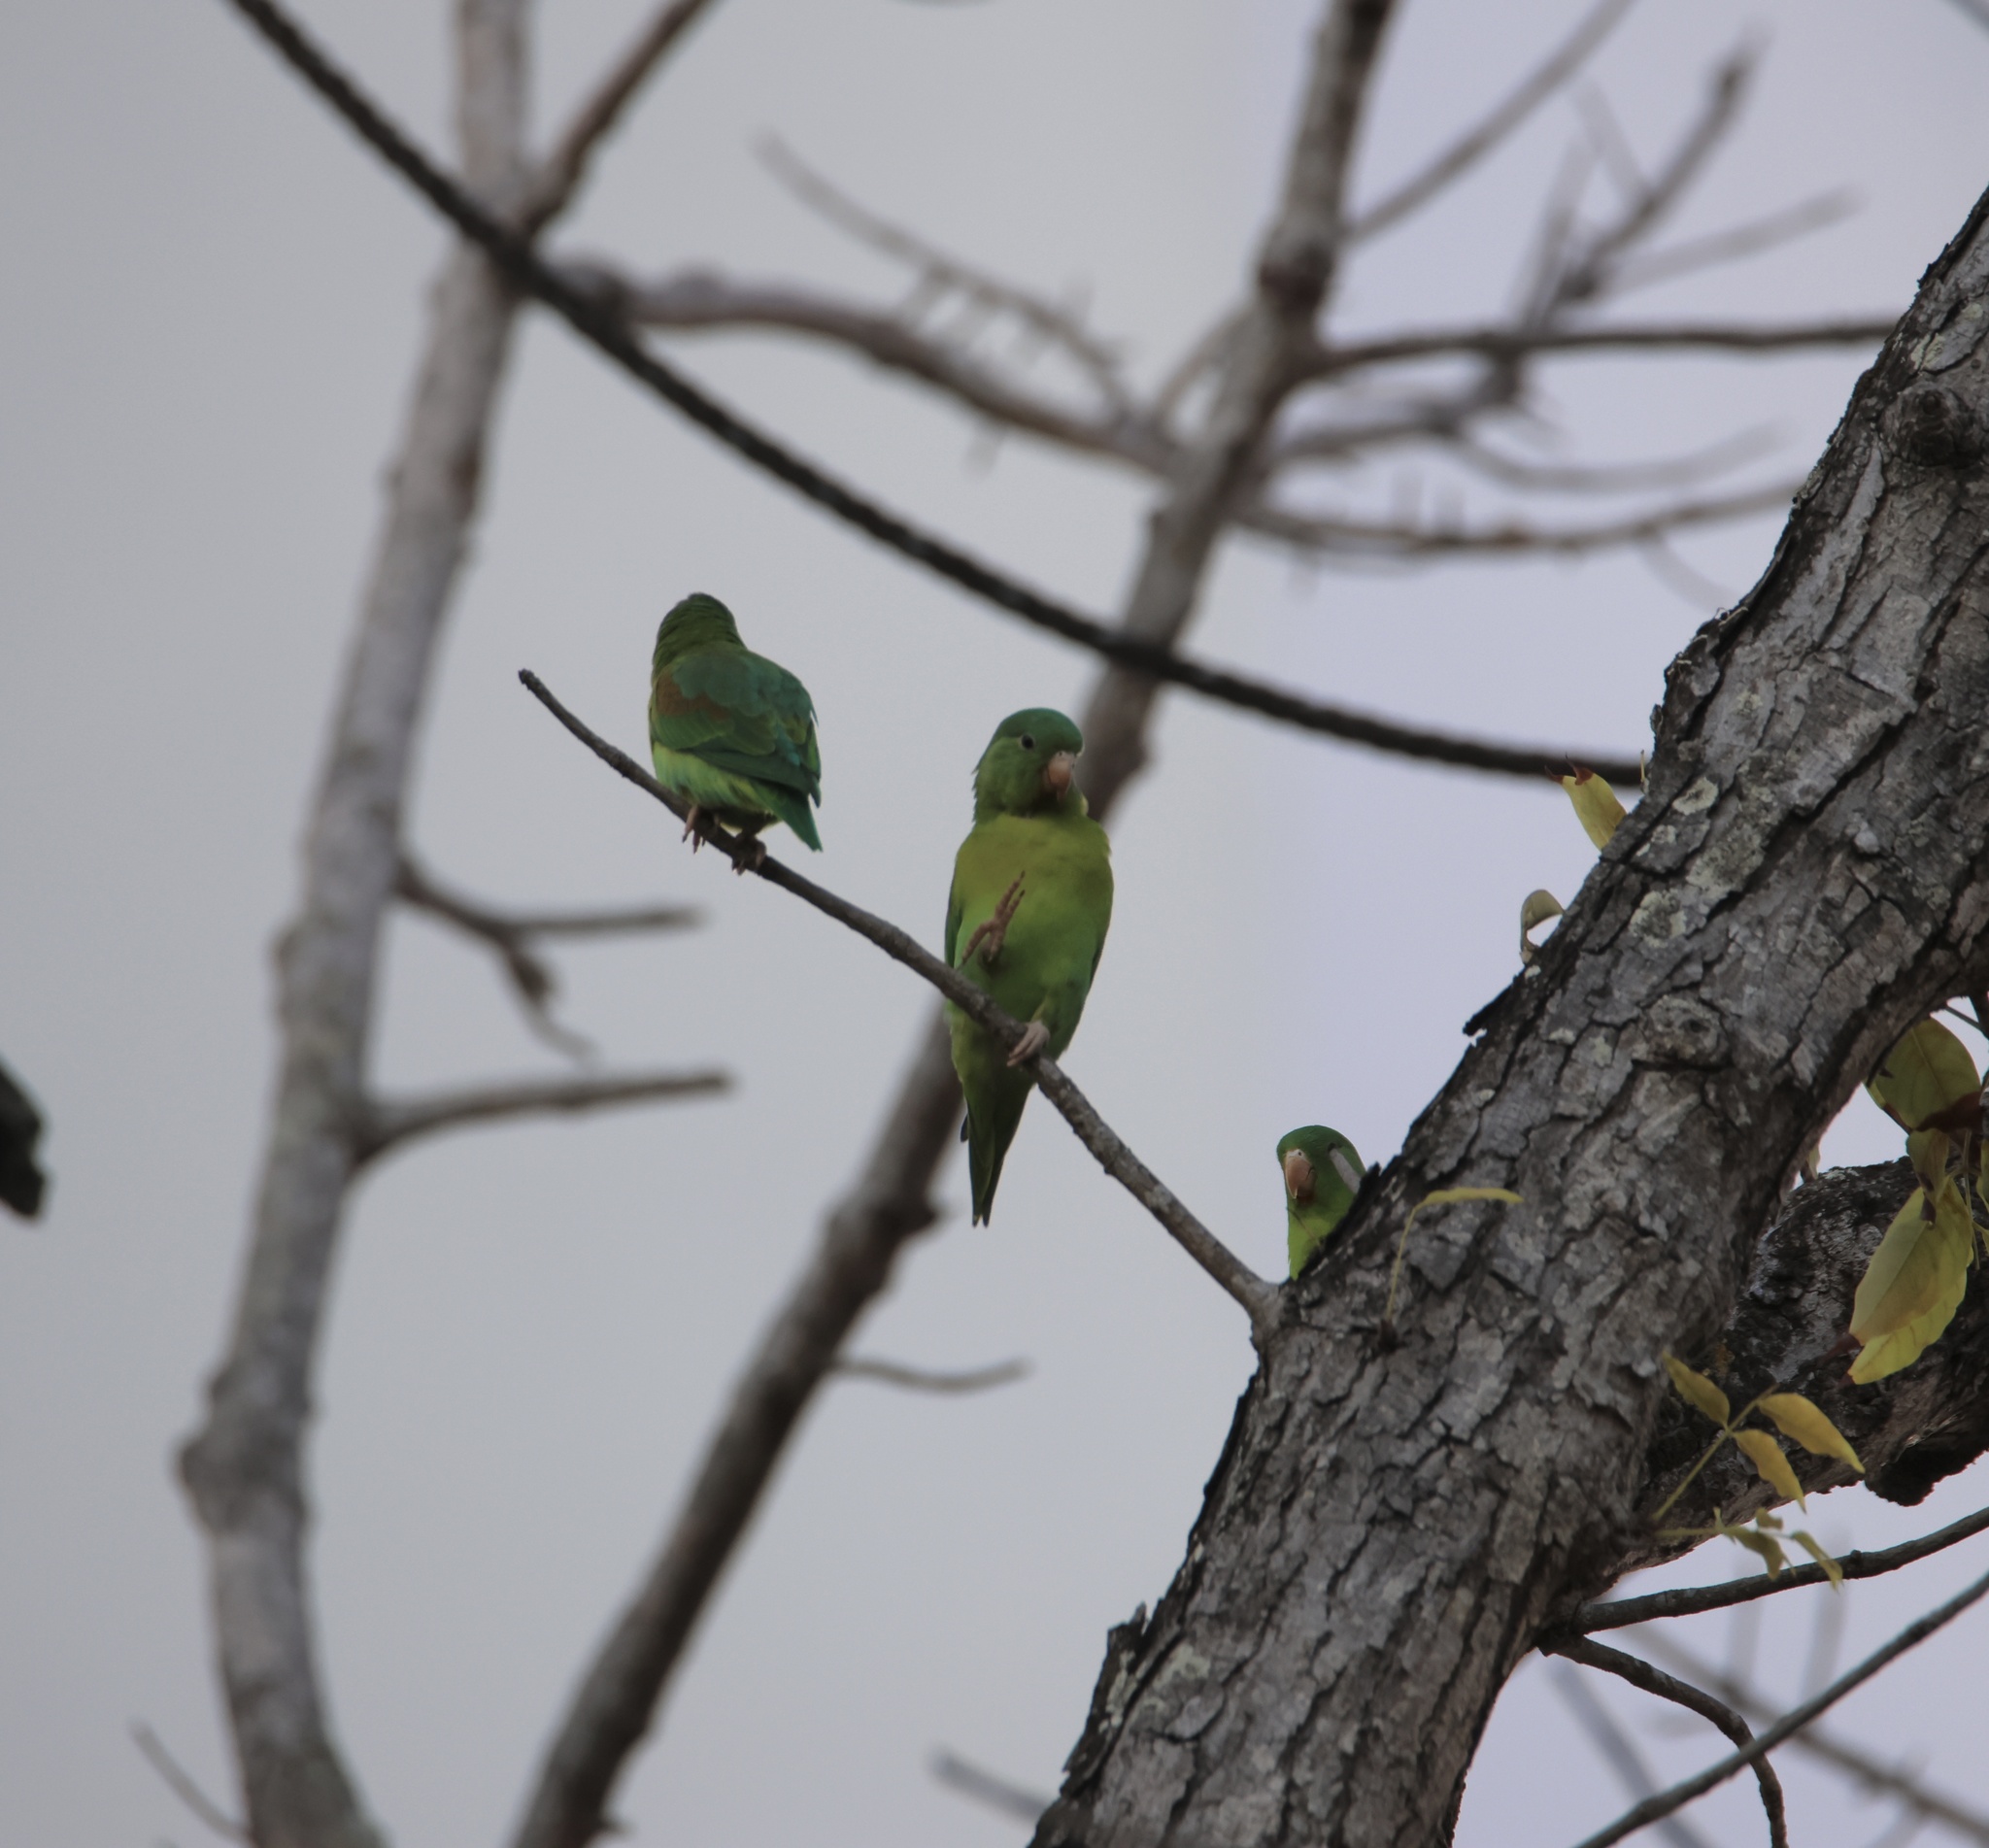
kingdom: Animalia
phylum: Chordata
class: Aves
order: Psittaciformes
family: Psittacidae
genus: Brotogeris
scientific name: Brotogeris jugularis
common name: Orange-chinned parakeet
